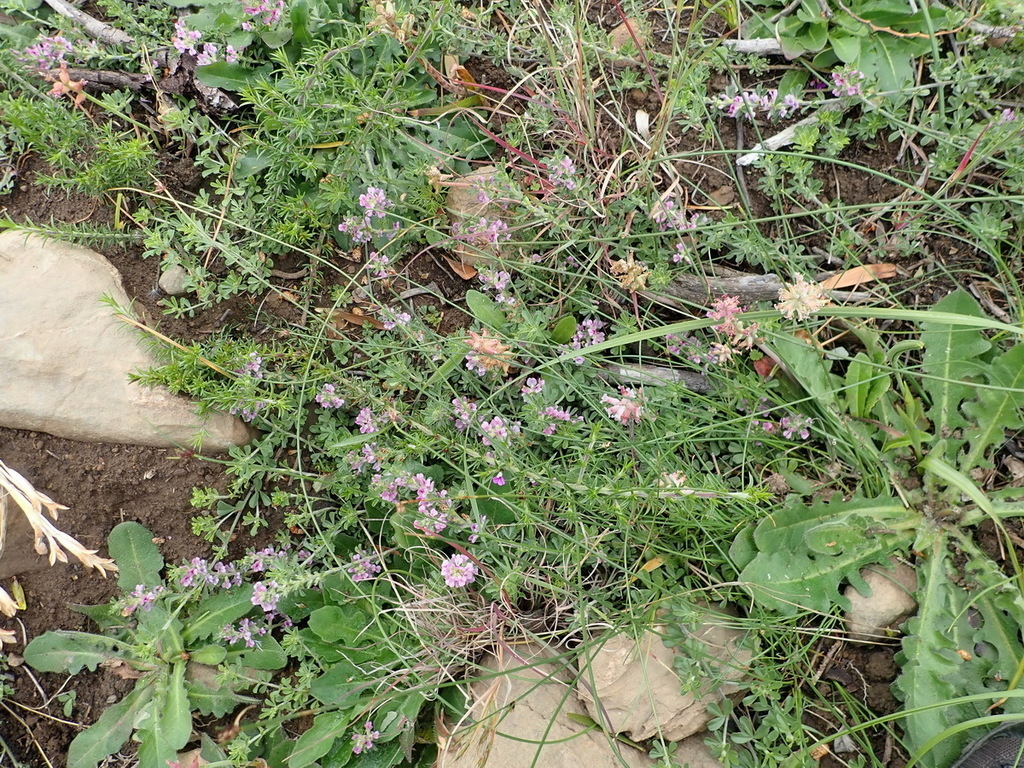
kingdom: Plantae
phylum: Tracheophyta
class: Magnoliopsida
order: Fabales
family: Fabaceae
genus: Psoralea
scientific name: Psoralea
